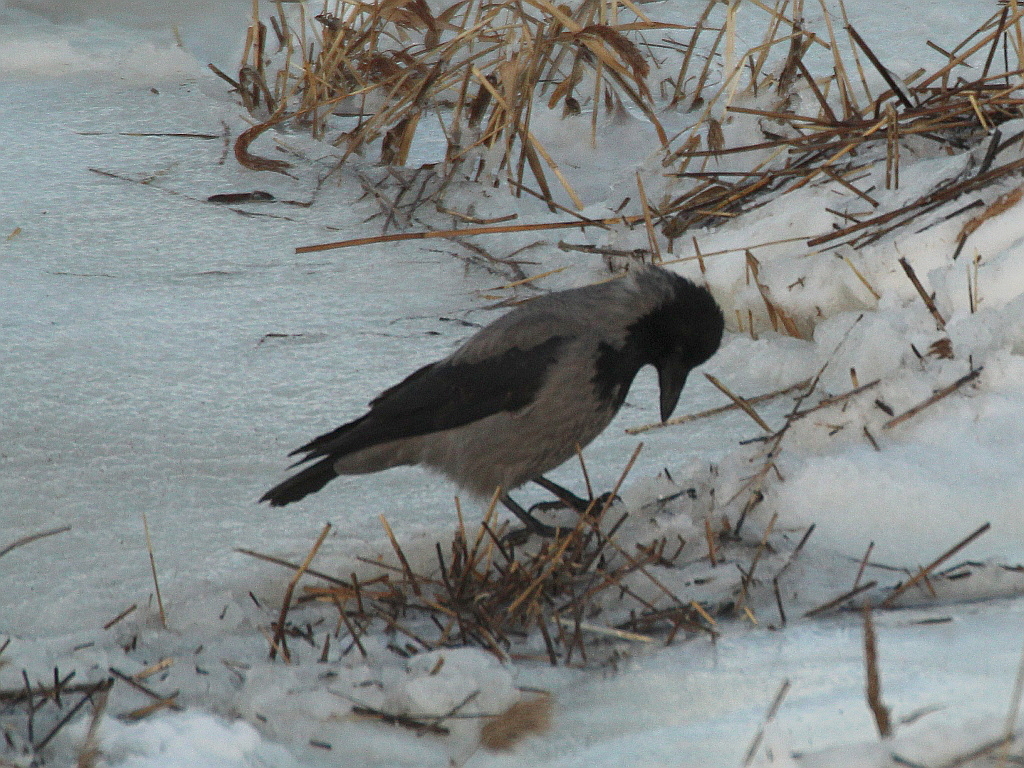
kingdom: Animalia
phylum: Chordata
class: Aves
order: Passeriformes
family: Corvidae
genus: Corvus
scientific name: Corvus cornix
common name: Hooded crow
